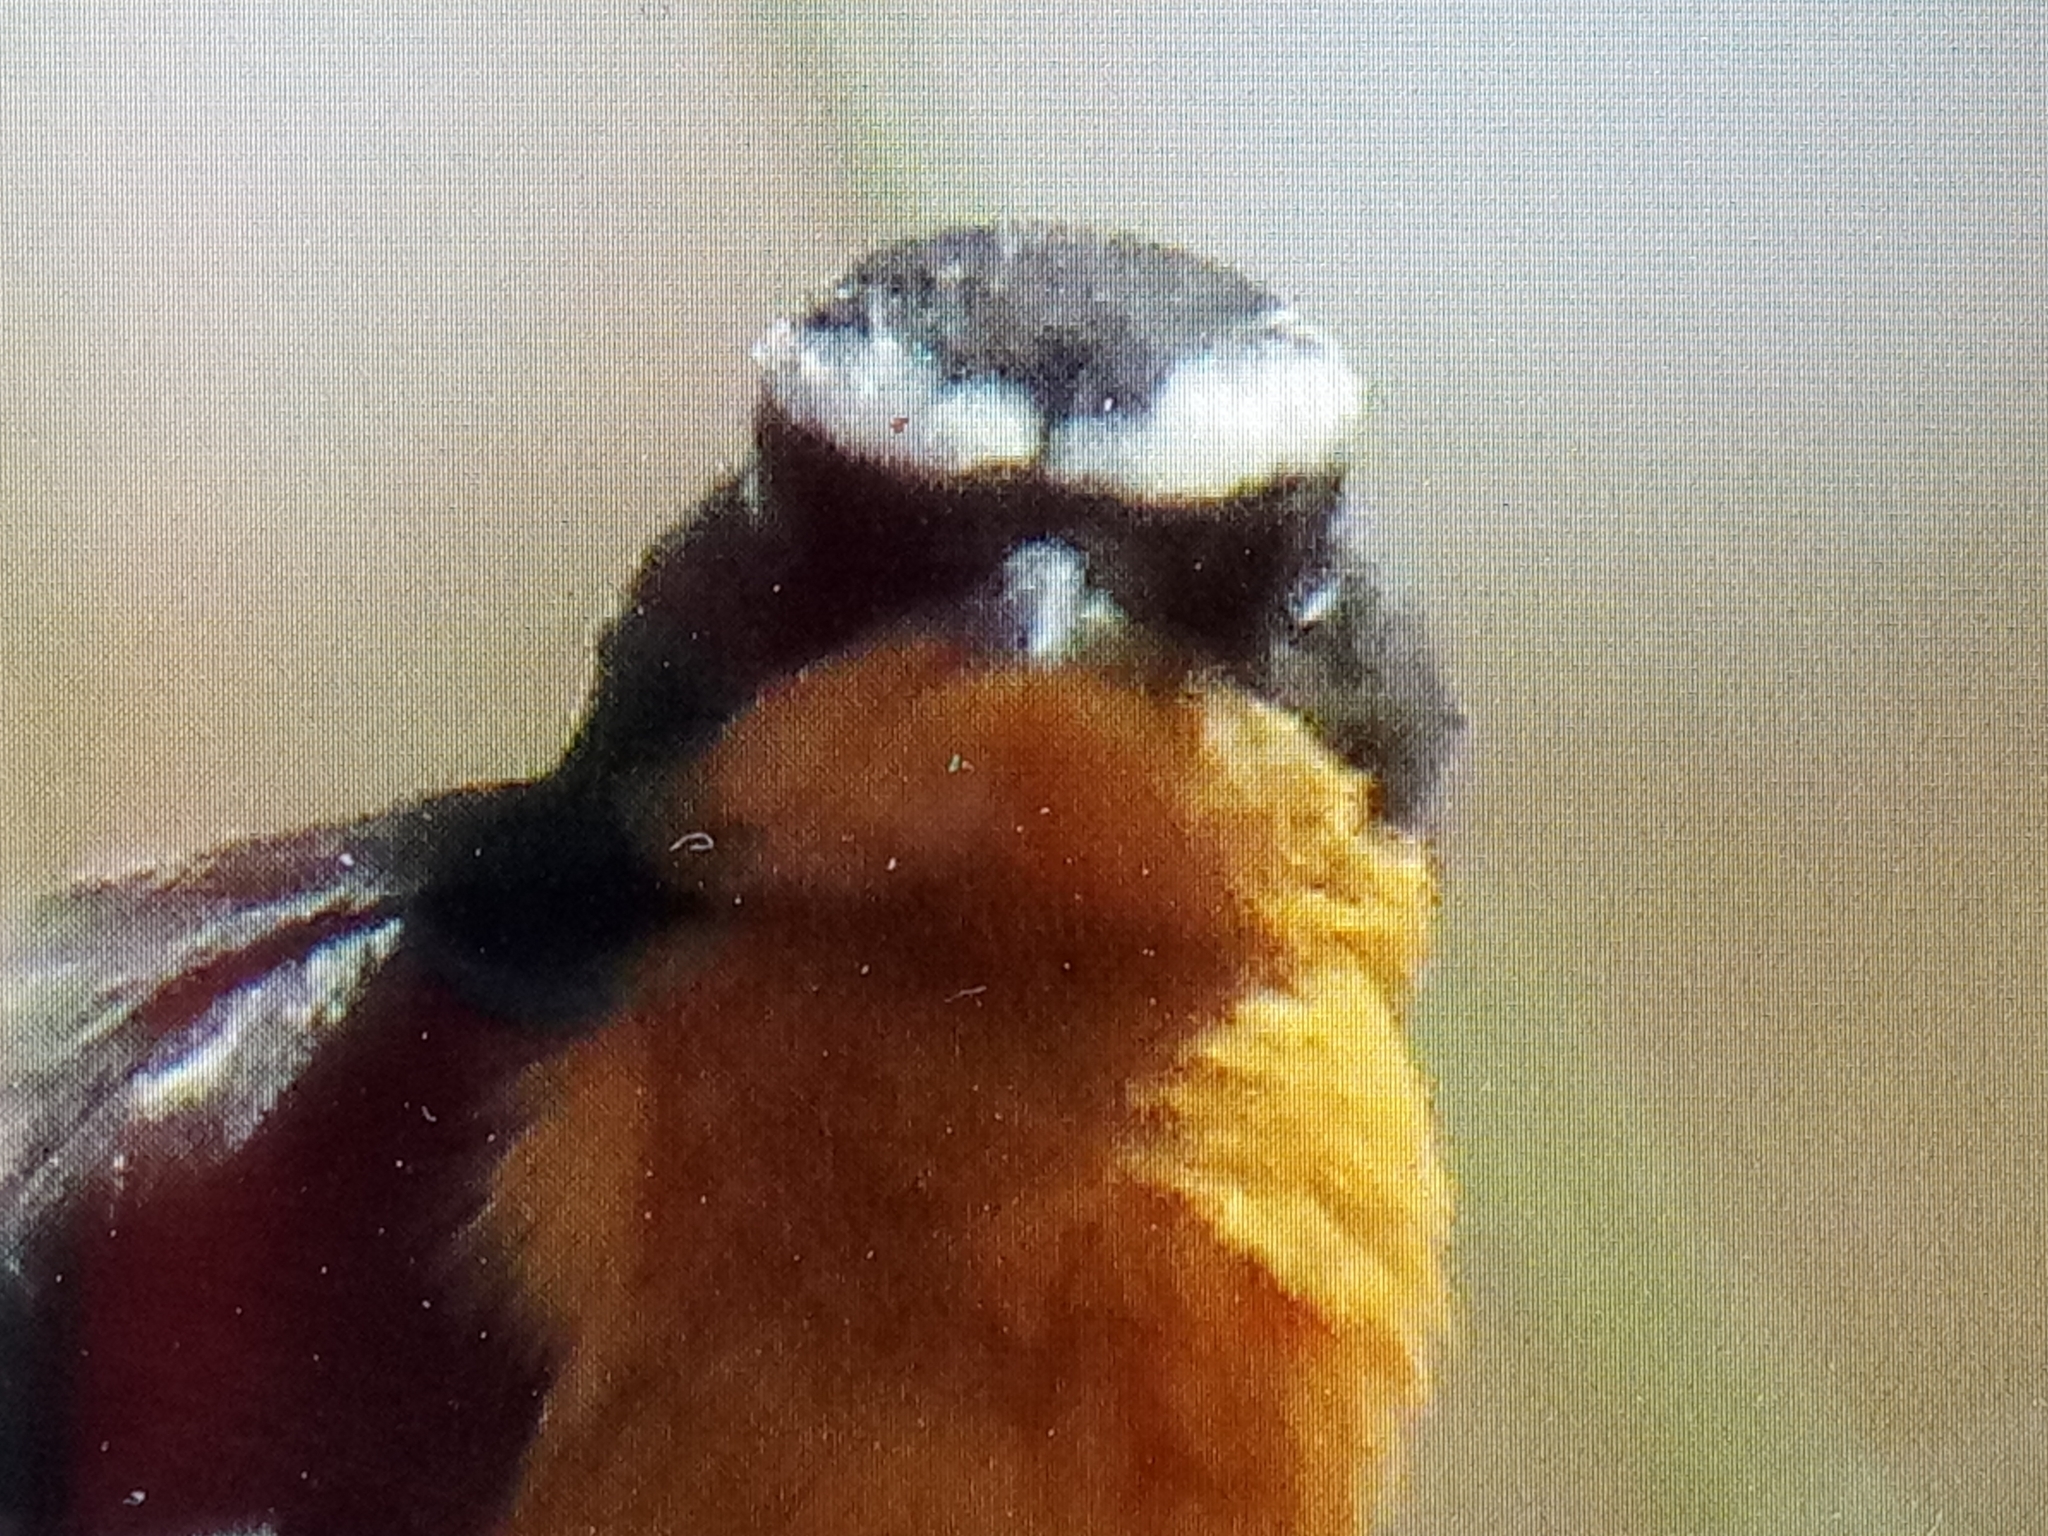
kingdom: Animalia
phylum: Chordata
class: Aves
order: Passeriformes
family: Muscicapidae
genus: Phoenicurus
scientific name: Phoenicurus moussieri
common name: Moussier's redstart
